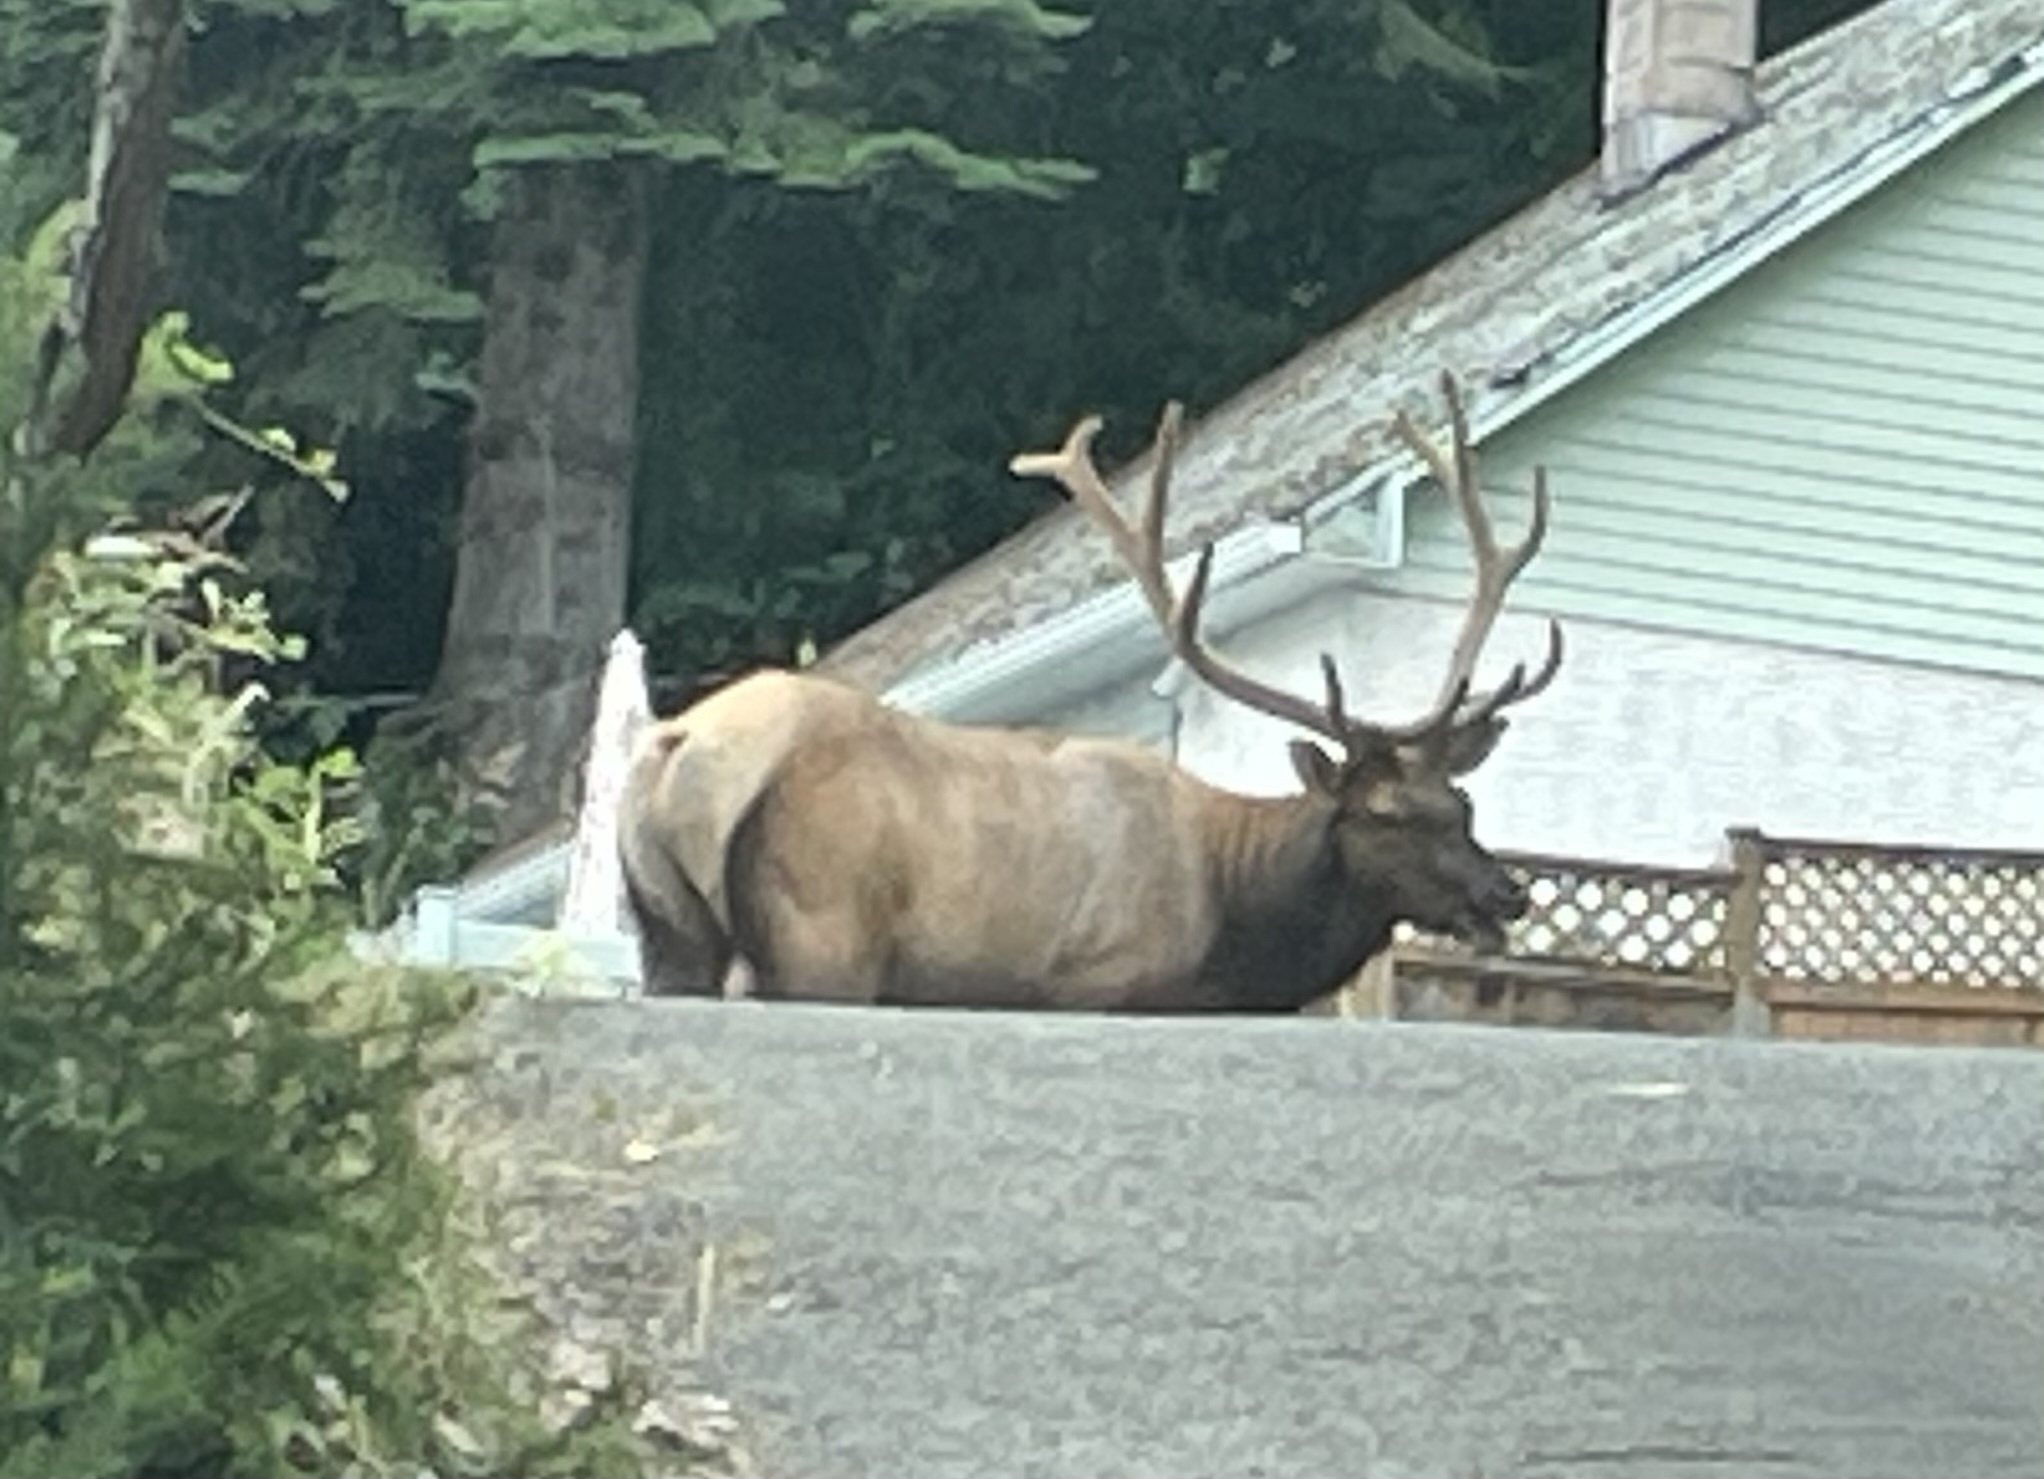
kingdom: Animalia
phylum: Chordata
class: Mammalia
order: Artiodactyla
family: Cervidae
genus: Cervus
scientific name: Cervus elaphus
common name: Red deer
